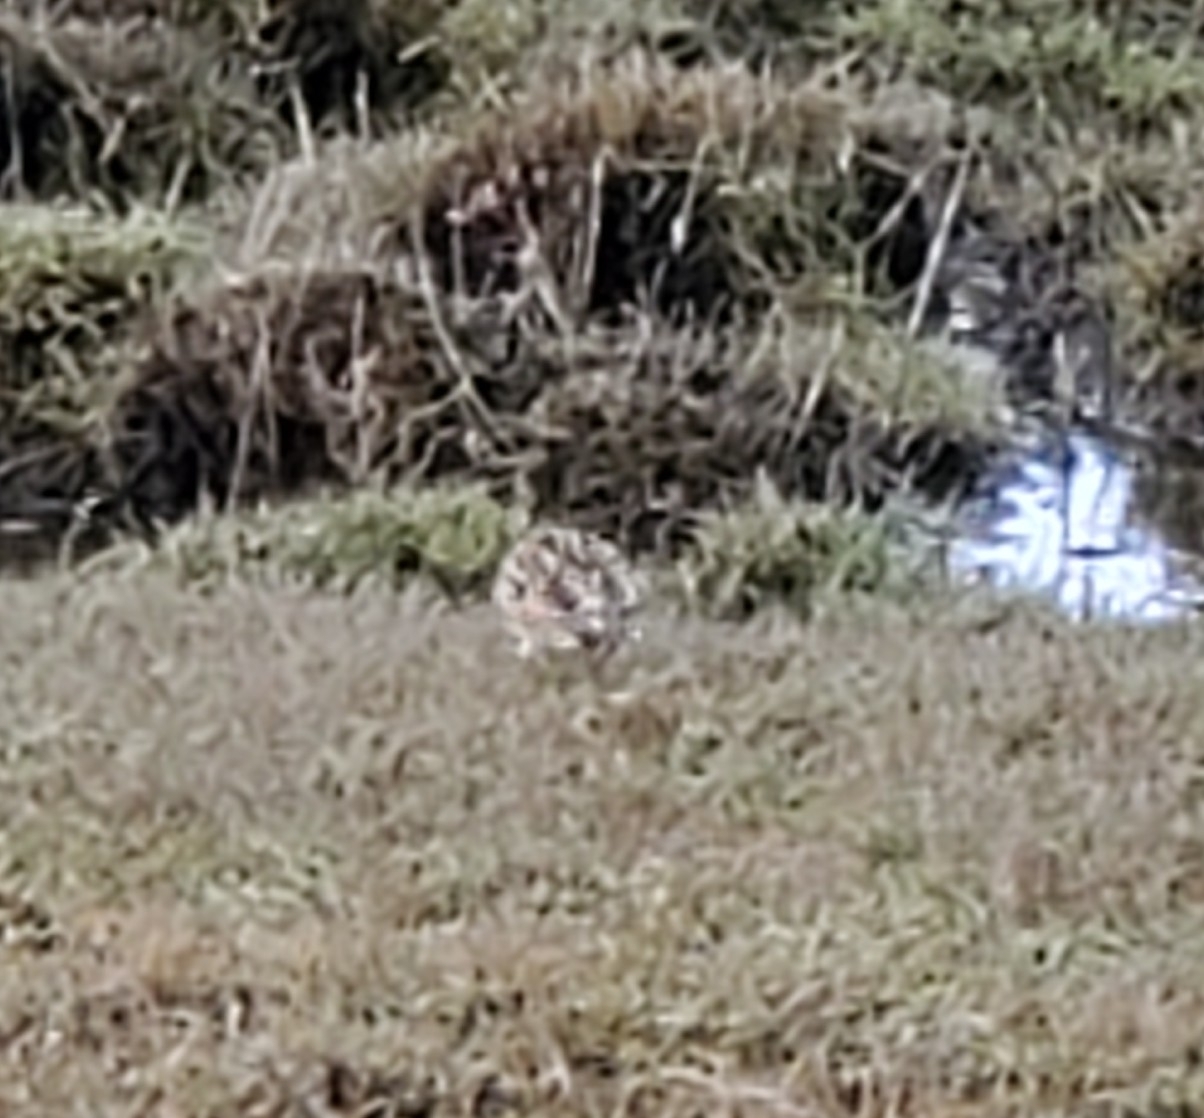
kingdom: Animalia
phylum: Chordata
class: Aves
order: Passeriformes
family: Alaudidae
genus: Alauda
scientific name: Alauda arvensis
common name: Eurasian skylark
